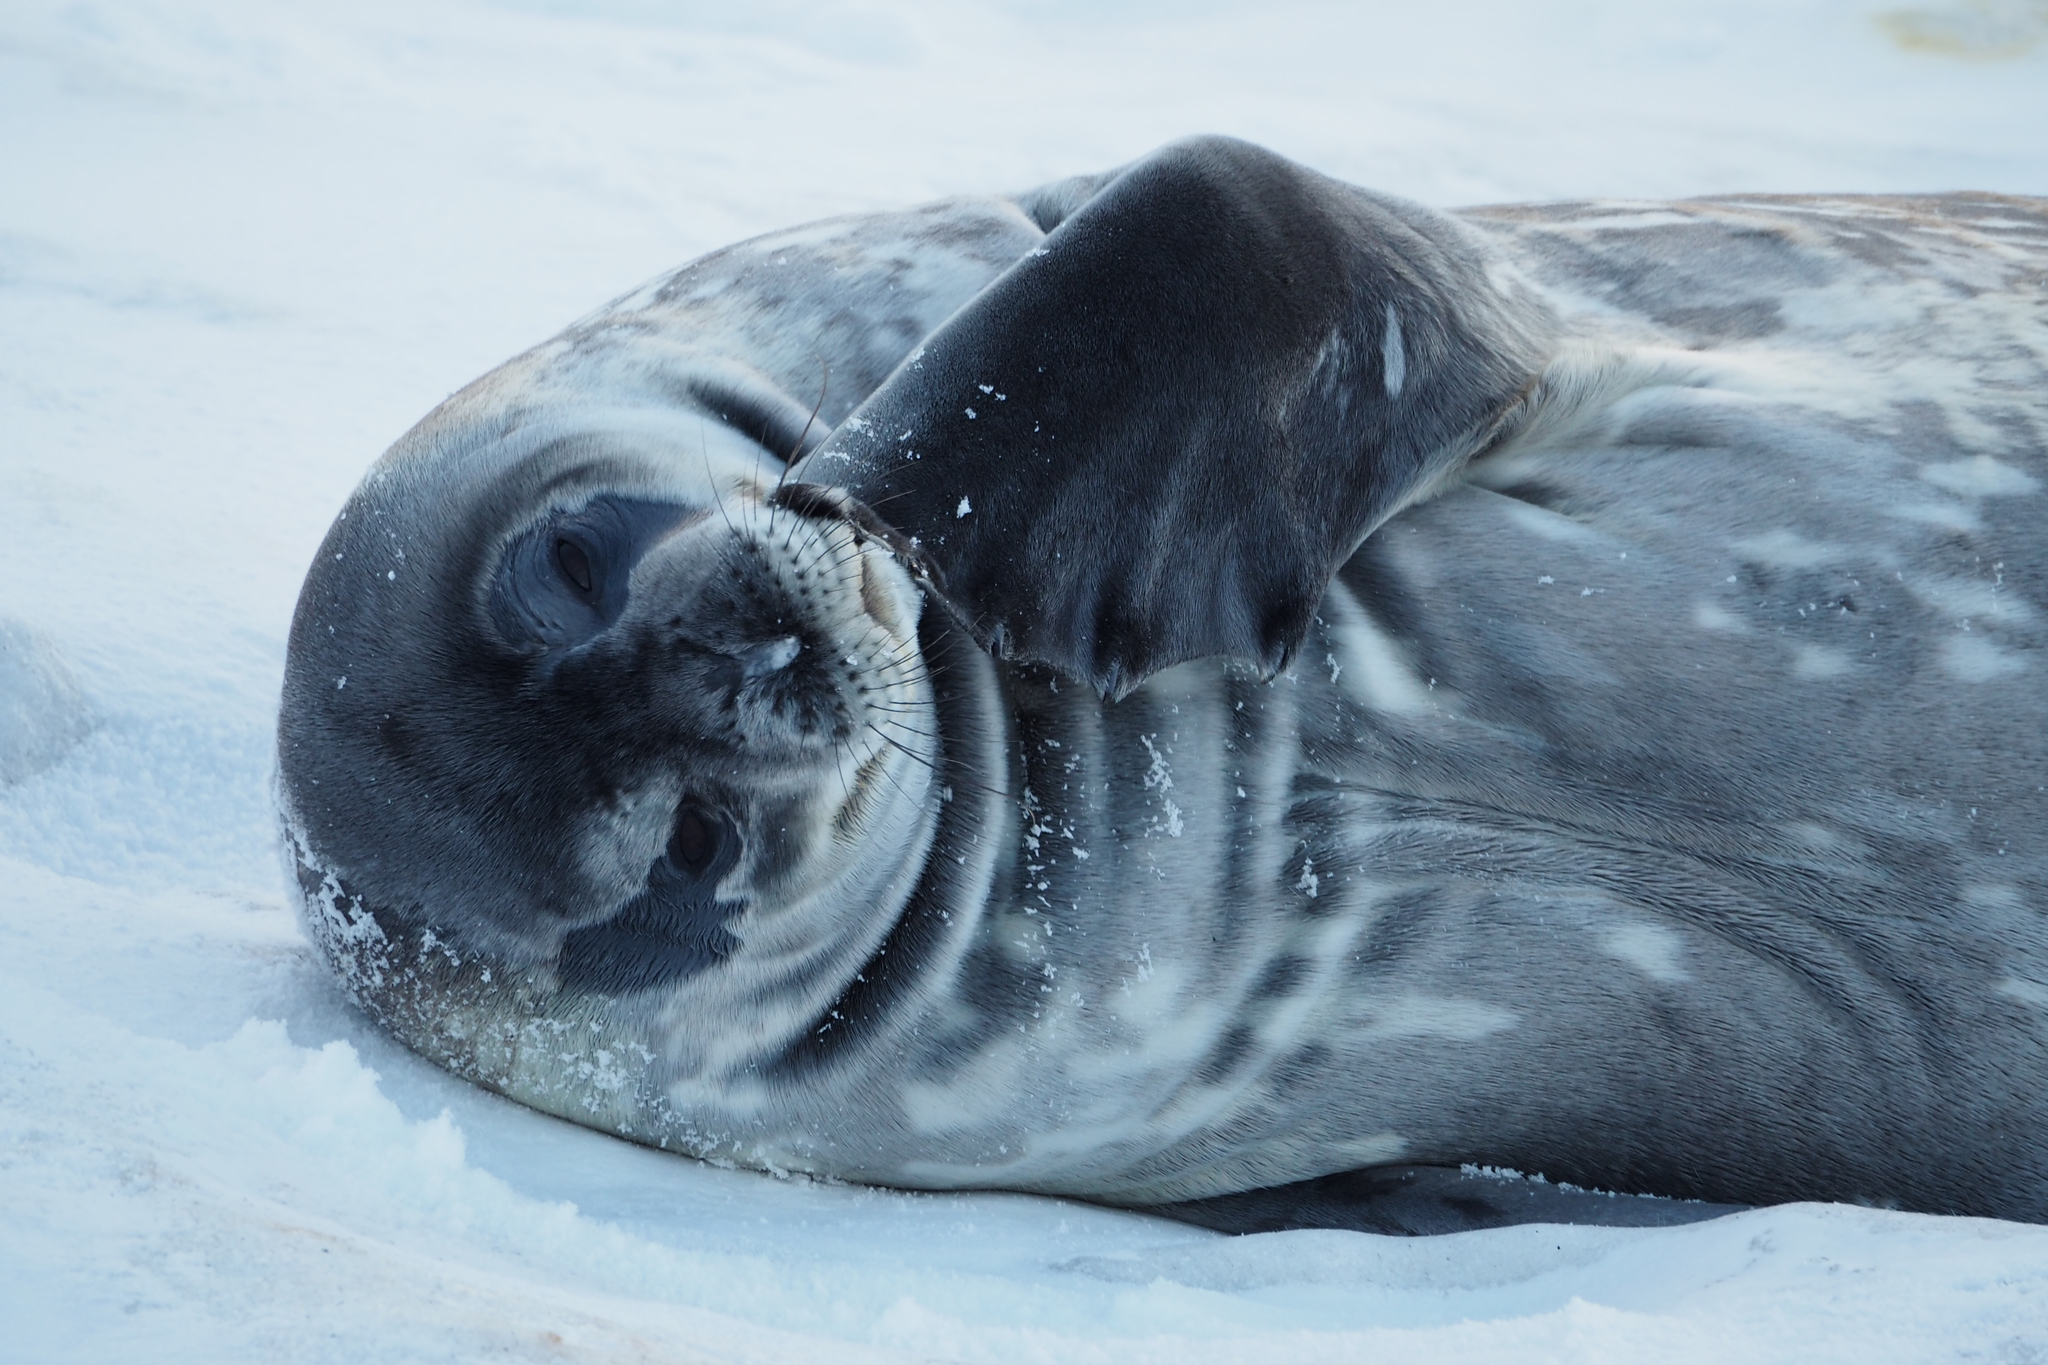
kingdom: Animalia
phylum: Chordata
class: Mammalia
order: Carnivora
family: Phocidae
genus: Leptonychotes
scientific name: Leptonychotes weddellii
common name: Weddell seal
